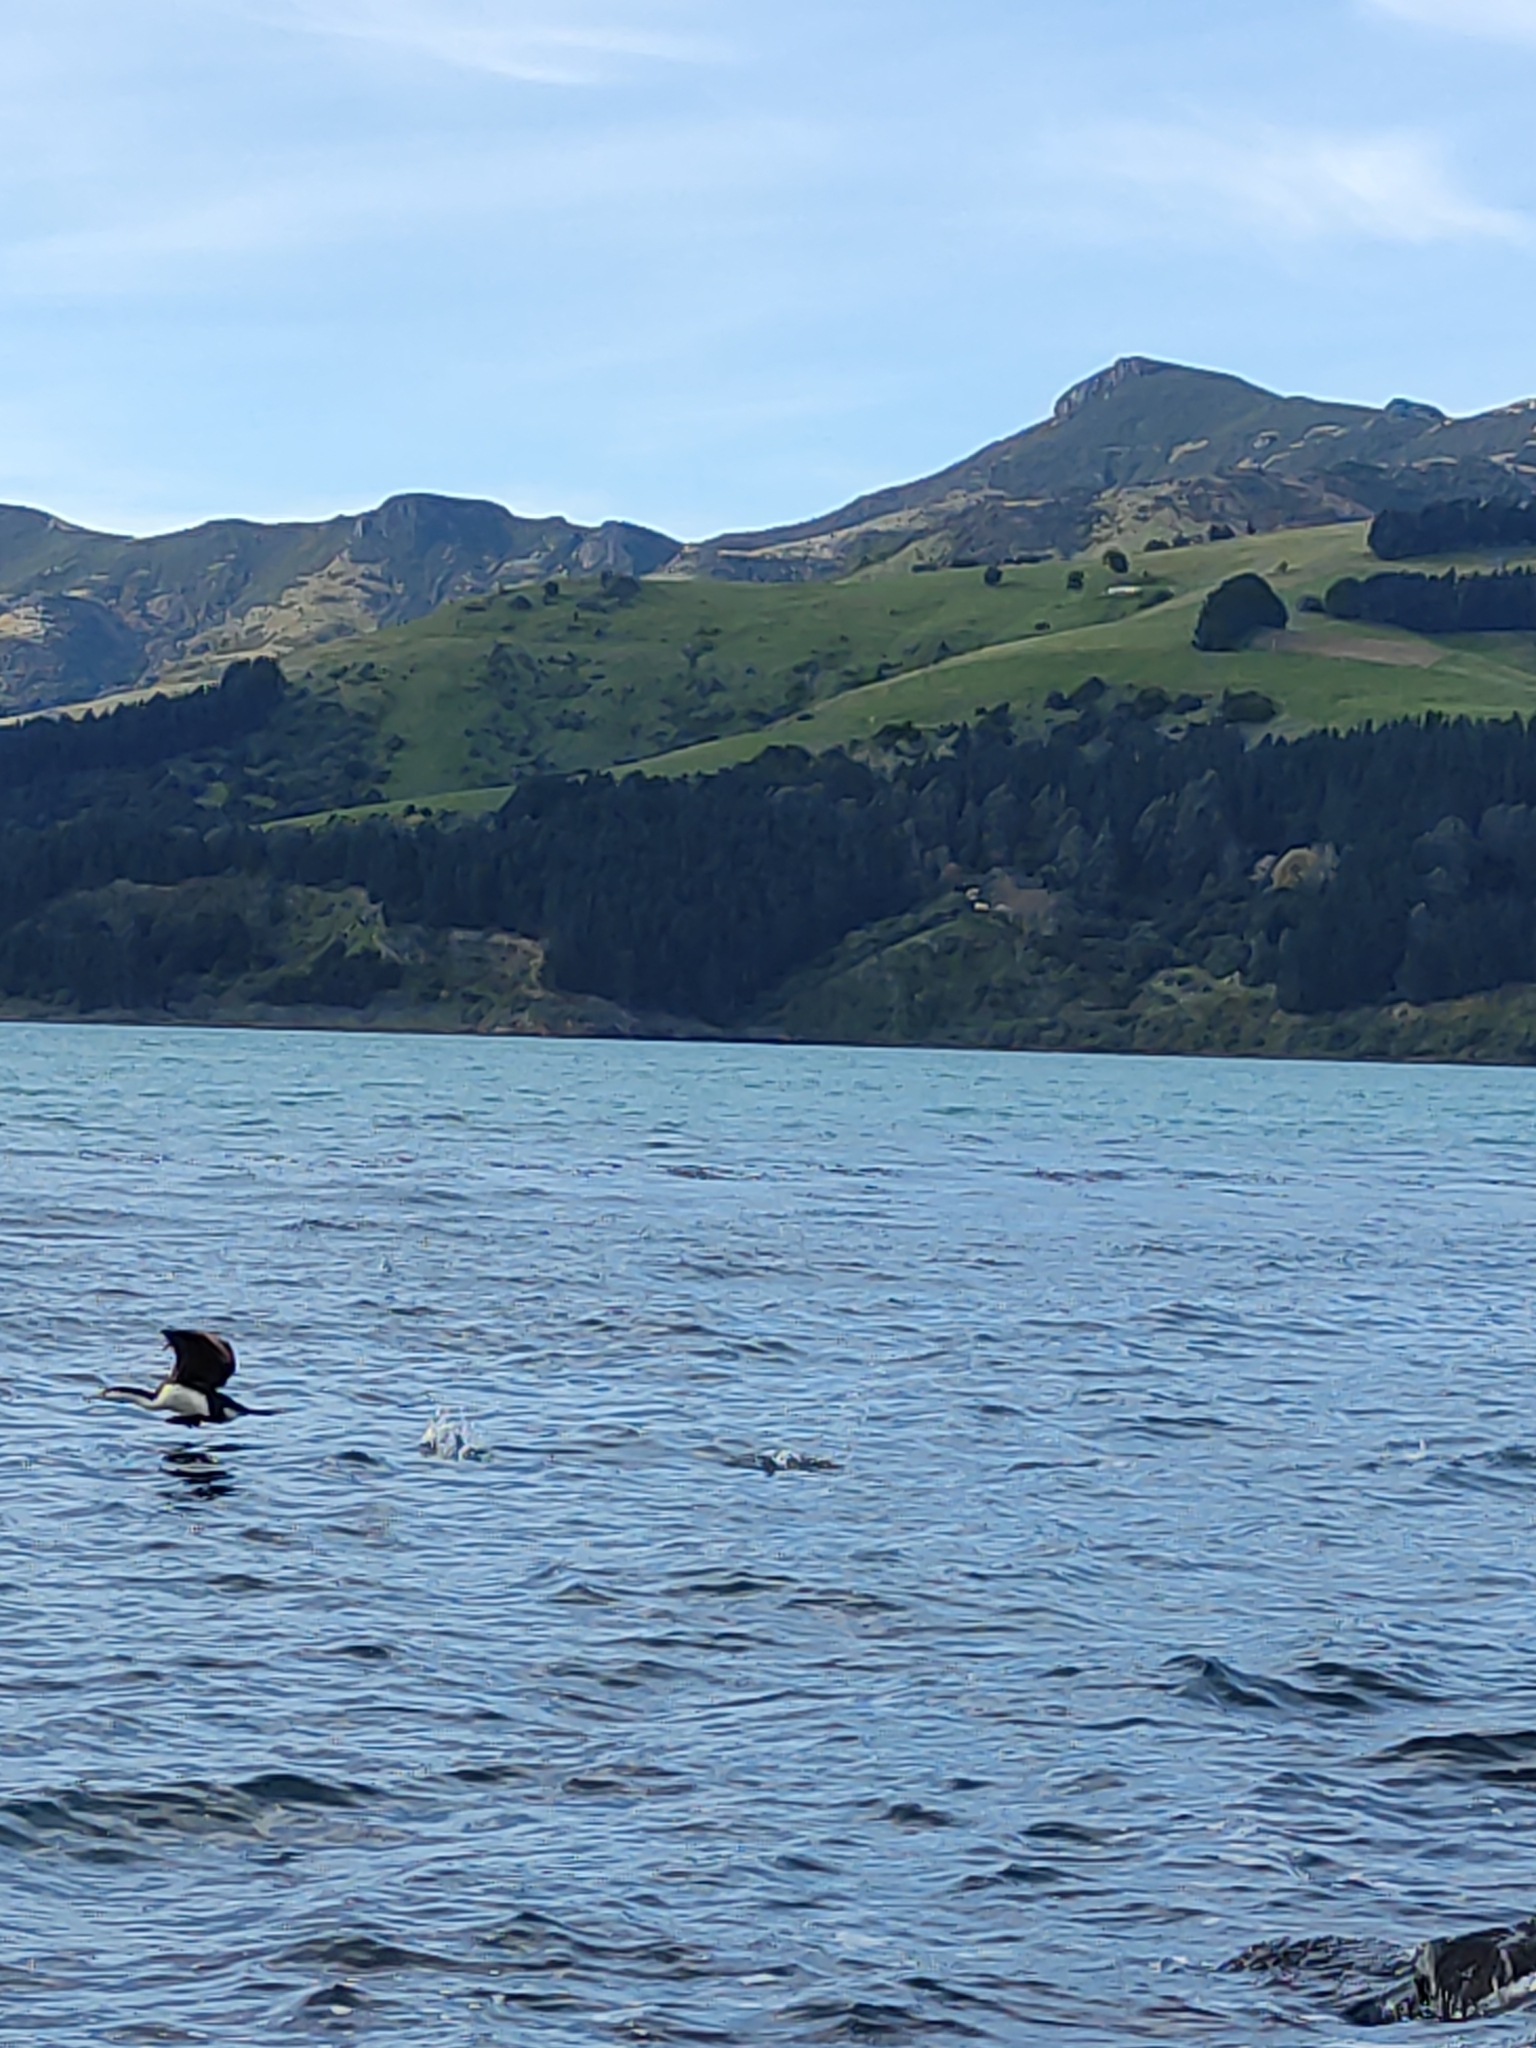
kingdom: Animalia
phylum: Chordata
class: Aves
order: Suliformes
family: Phalacrocoracidae
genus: Phalacrocorax
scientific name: Phalacrocorax varius
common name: Pied cormorant
